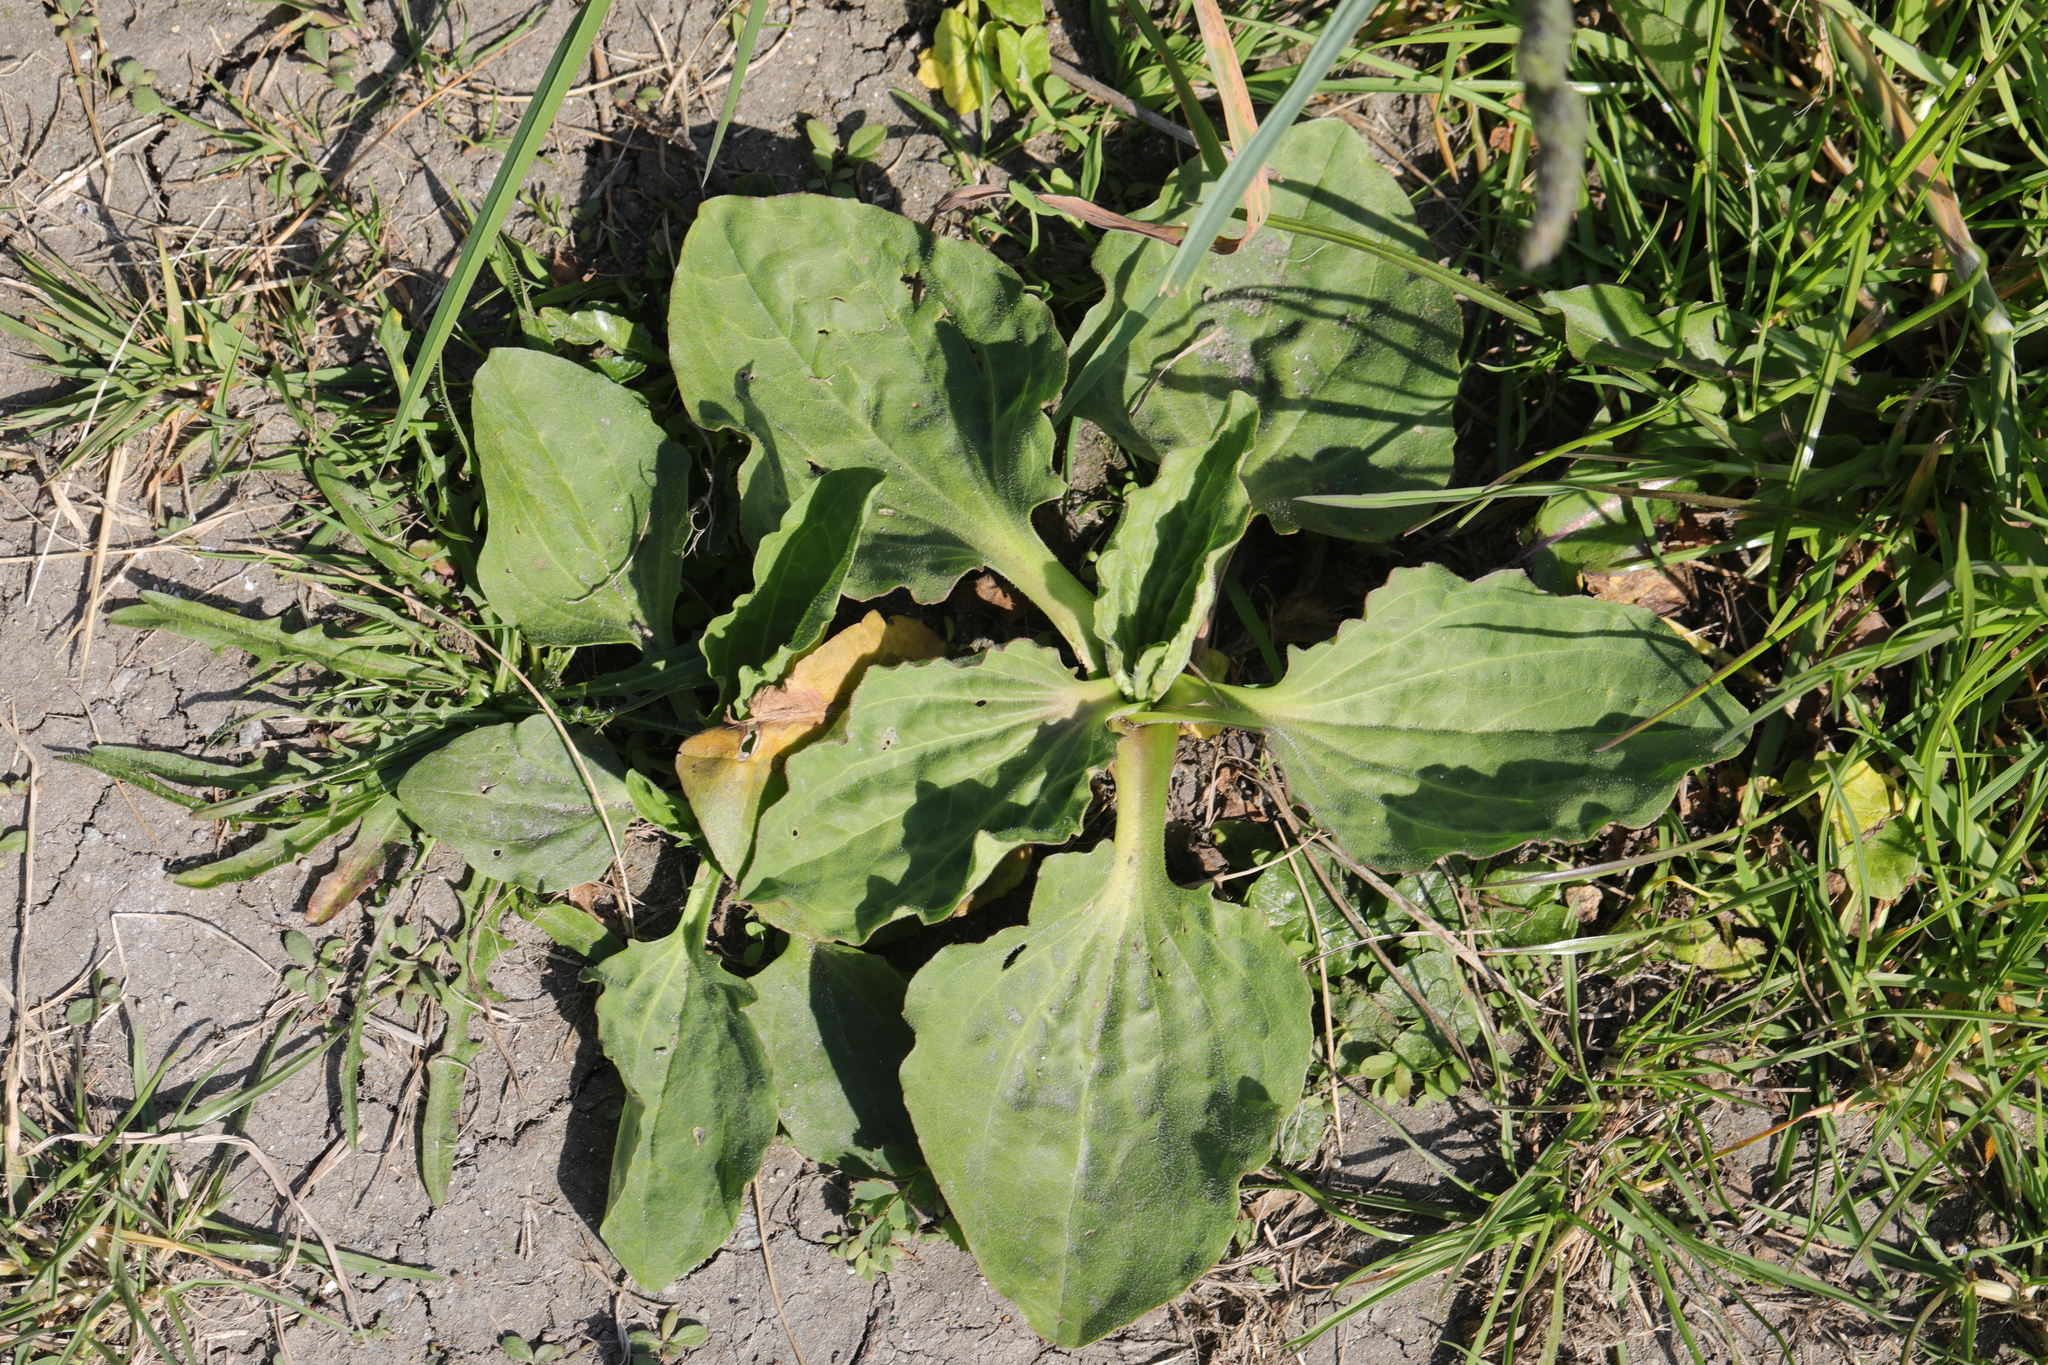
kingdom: Plantae
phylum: Tracheophyta
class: Magnoliopsida
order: Lamiales
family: Plantaginaceae
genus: Plantago
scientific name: Plantago major
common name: Common plantain
